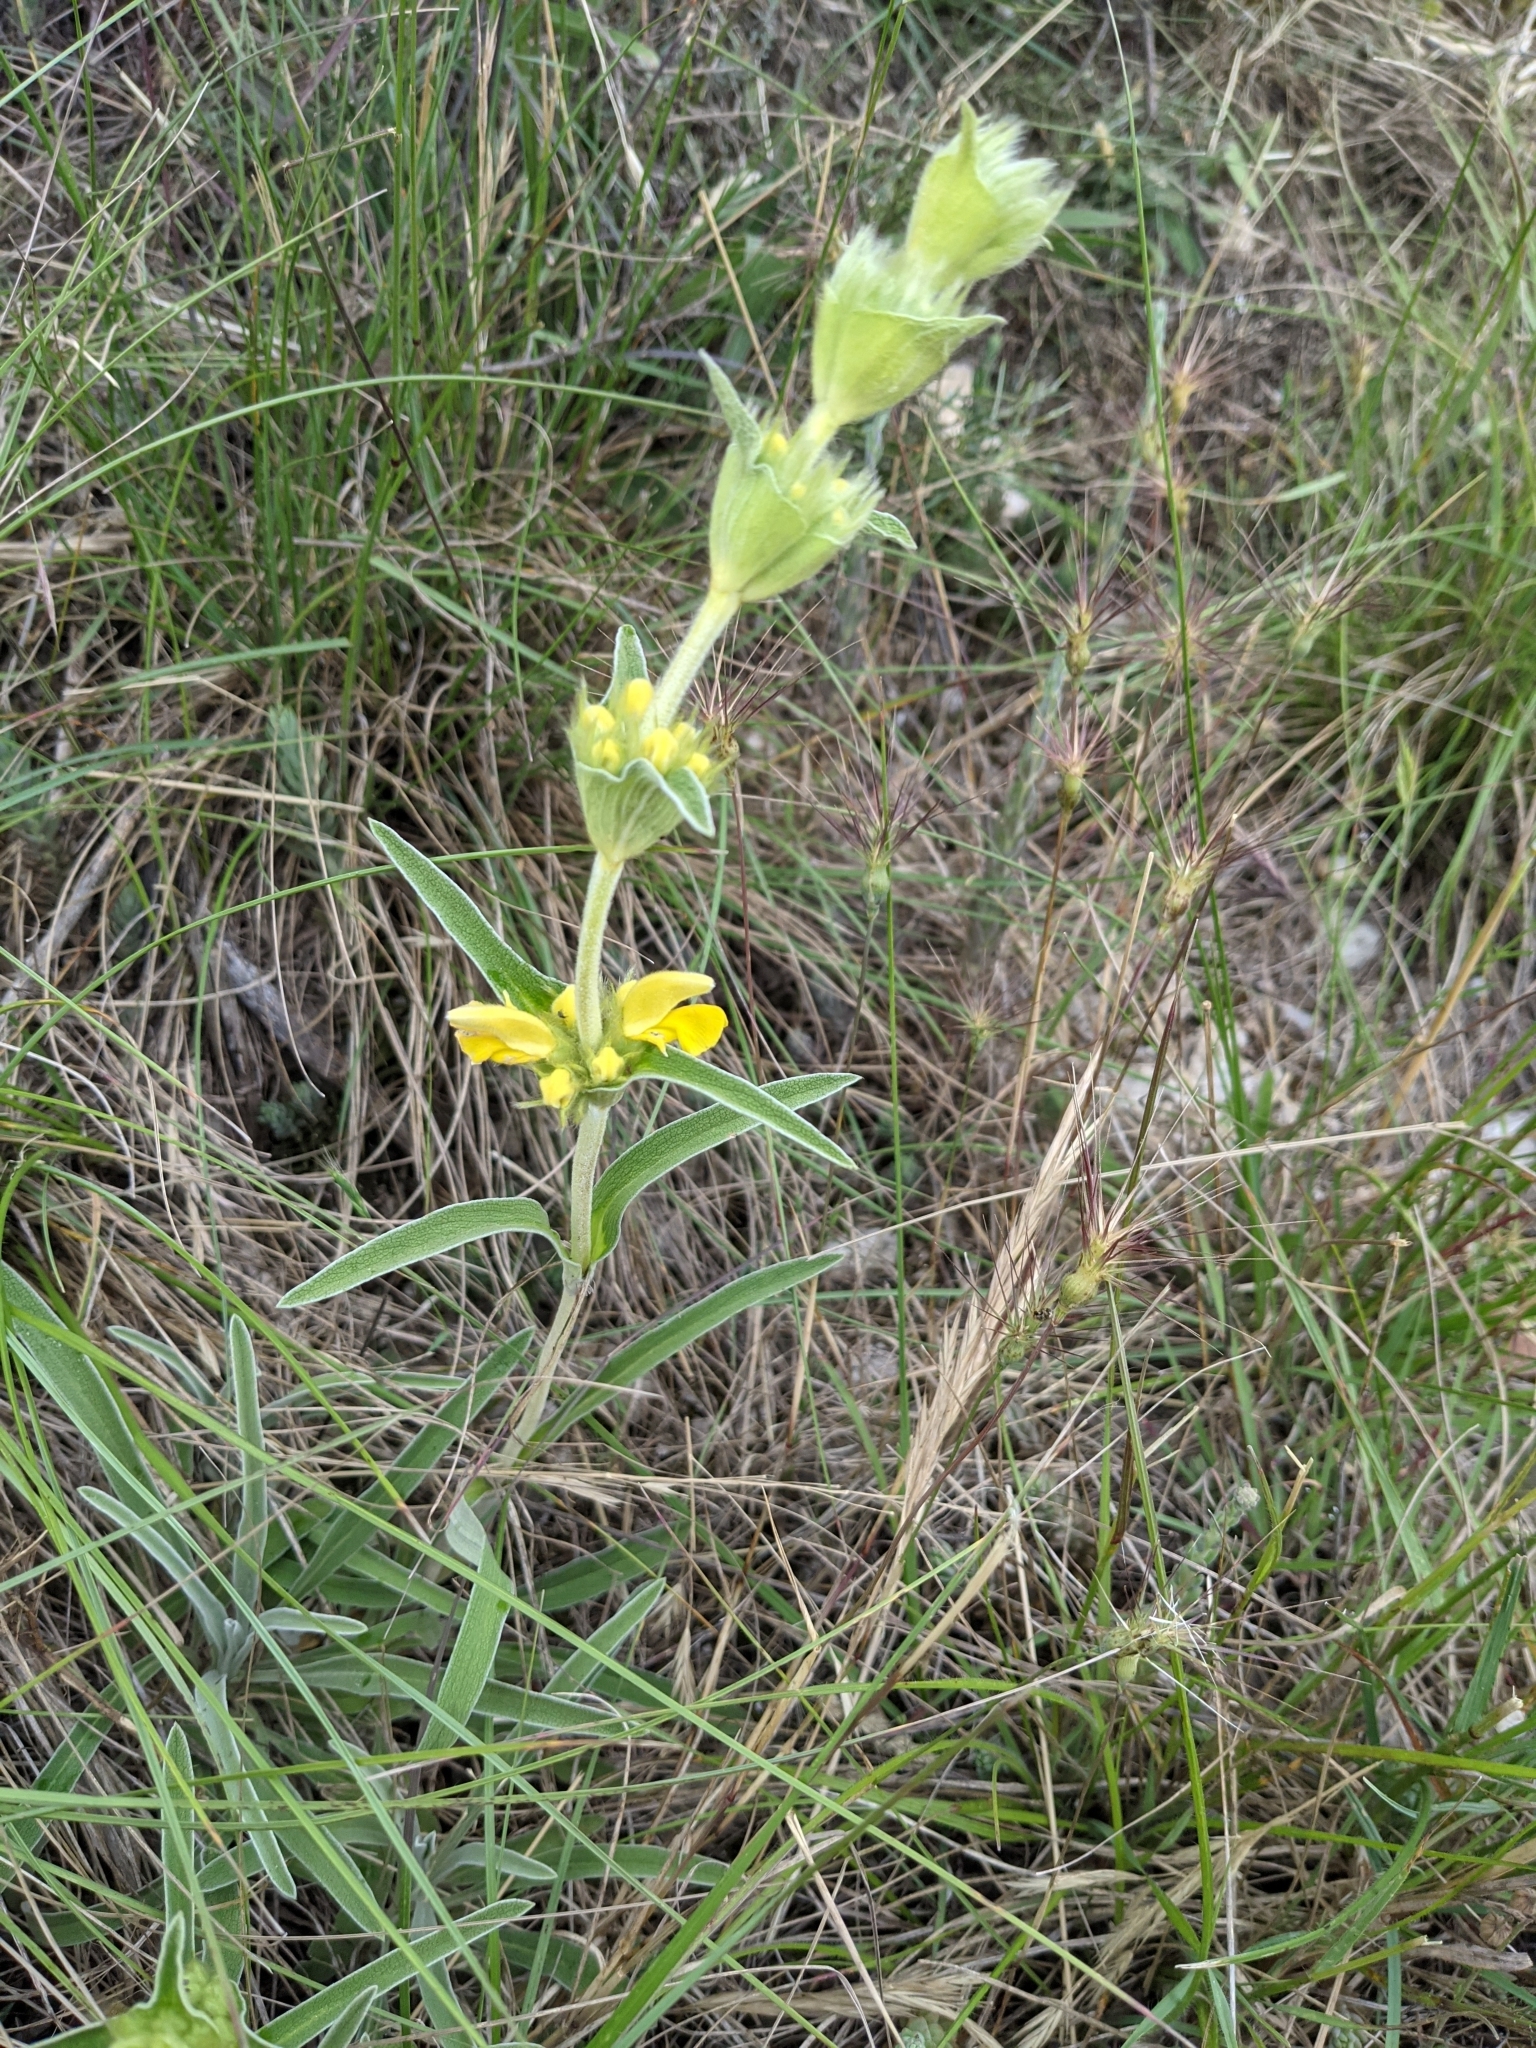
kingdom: Plantae
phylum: Tracheophyta
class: Magnoliopsida
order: Lamiales
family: Lamiaceae
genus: Phlomis
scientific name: Phlomis lychnitis
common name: Lampwickplant
